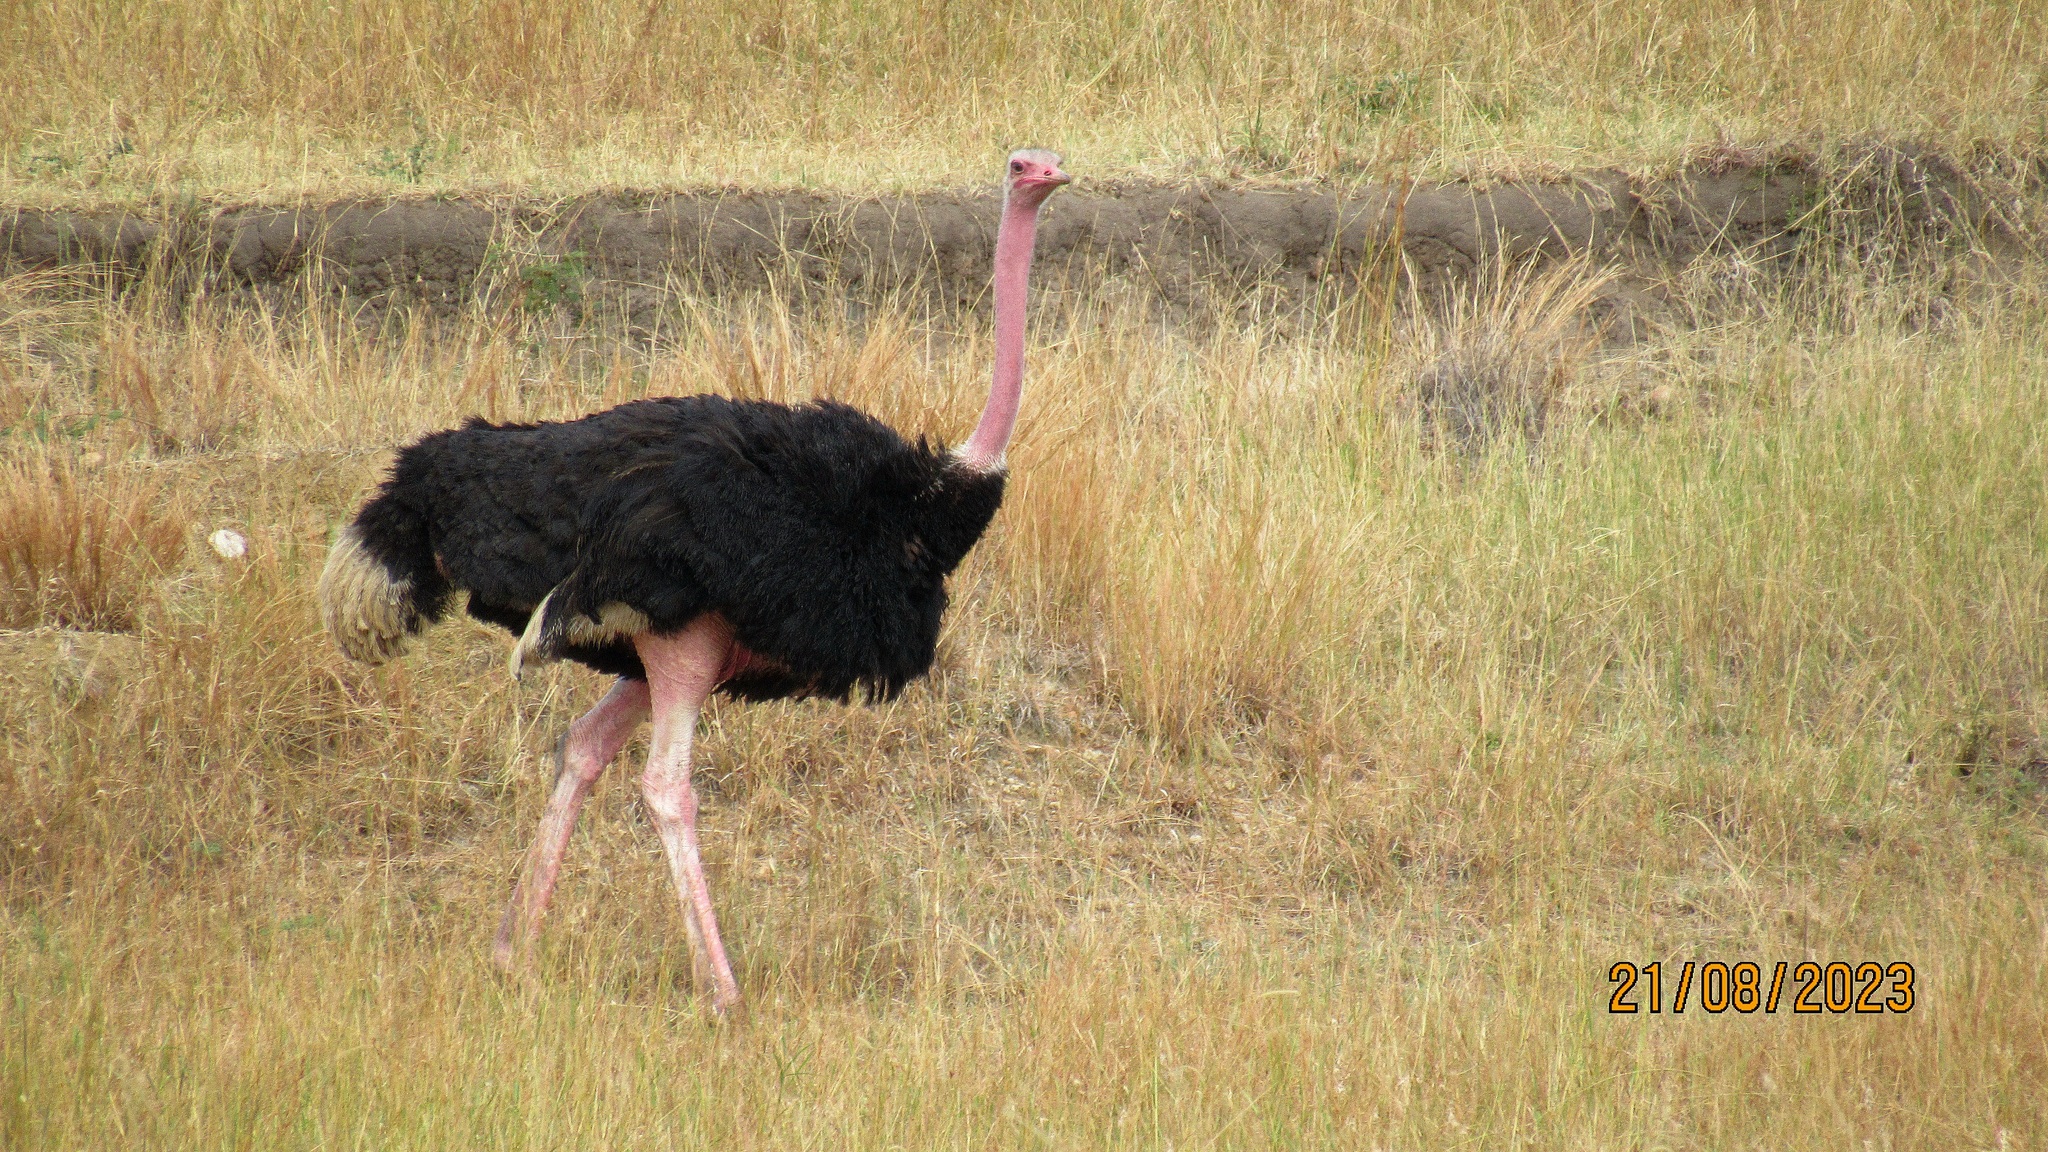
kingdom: Animalia
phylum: Chordata
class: Aves
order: Struthioniformes
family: Struthionidae
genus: Struthio
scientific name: Struthio camelus
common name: Common ostrich
